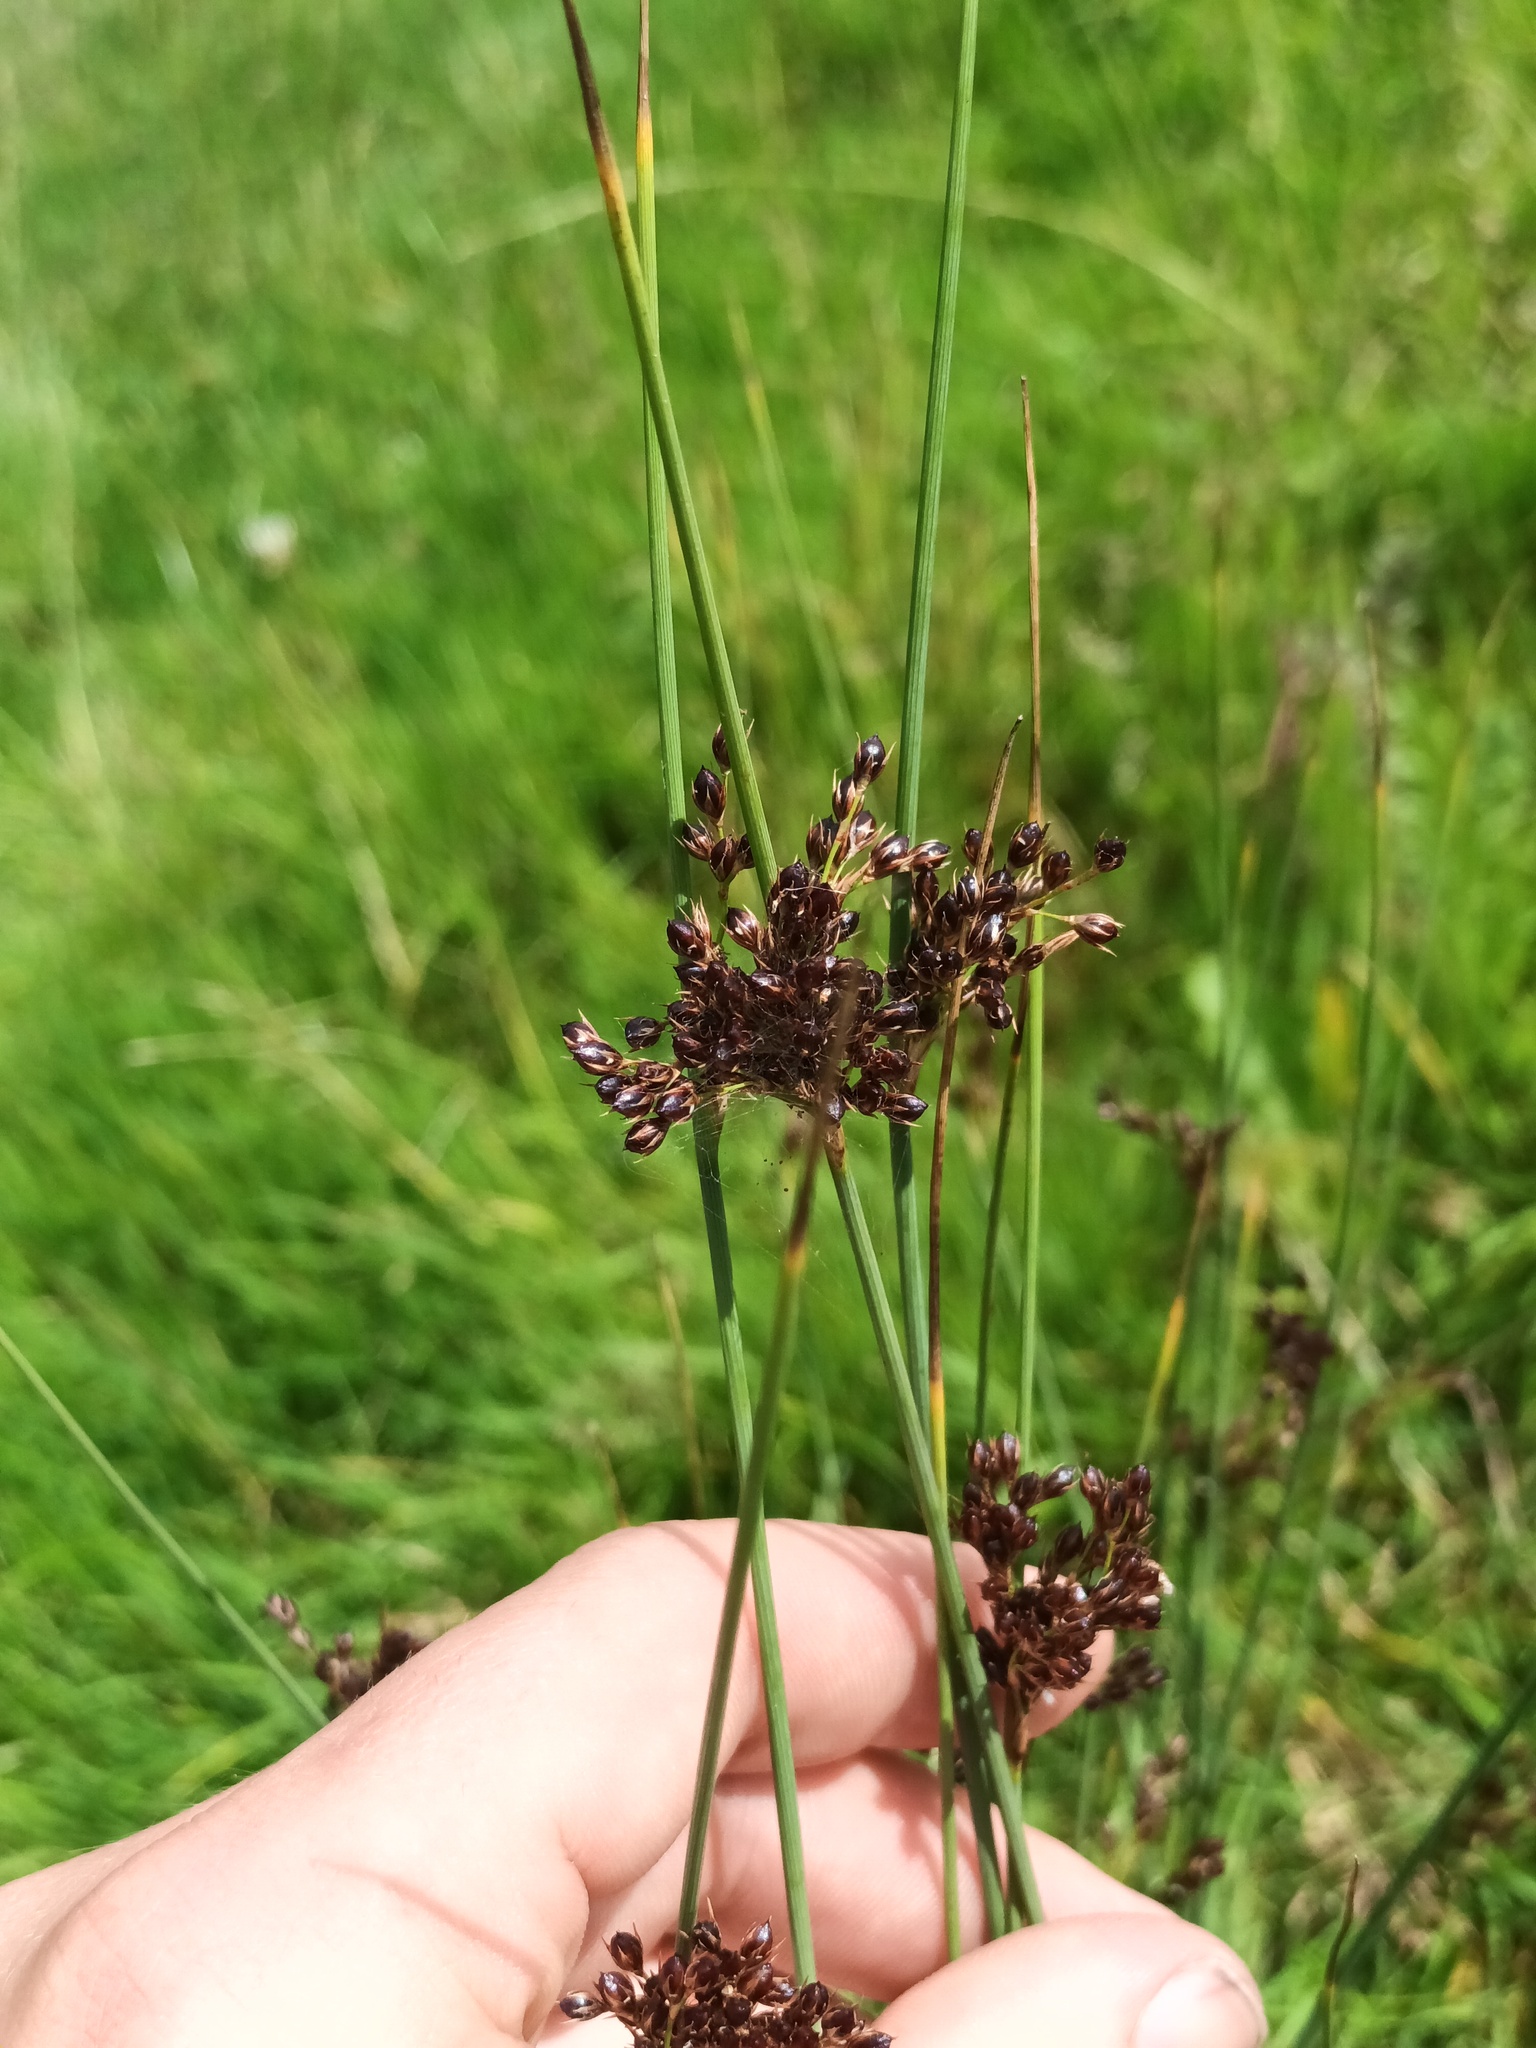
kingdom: Plantae
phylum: Tracheophyta
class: Liliopsida
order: Poales
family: Juncaceae
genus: Juncus
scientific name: Juncus inflexus
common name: Hard rush
